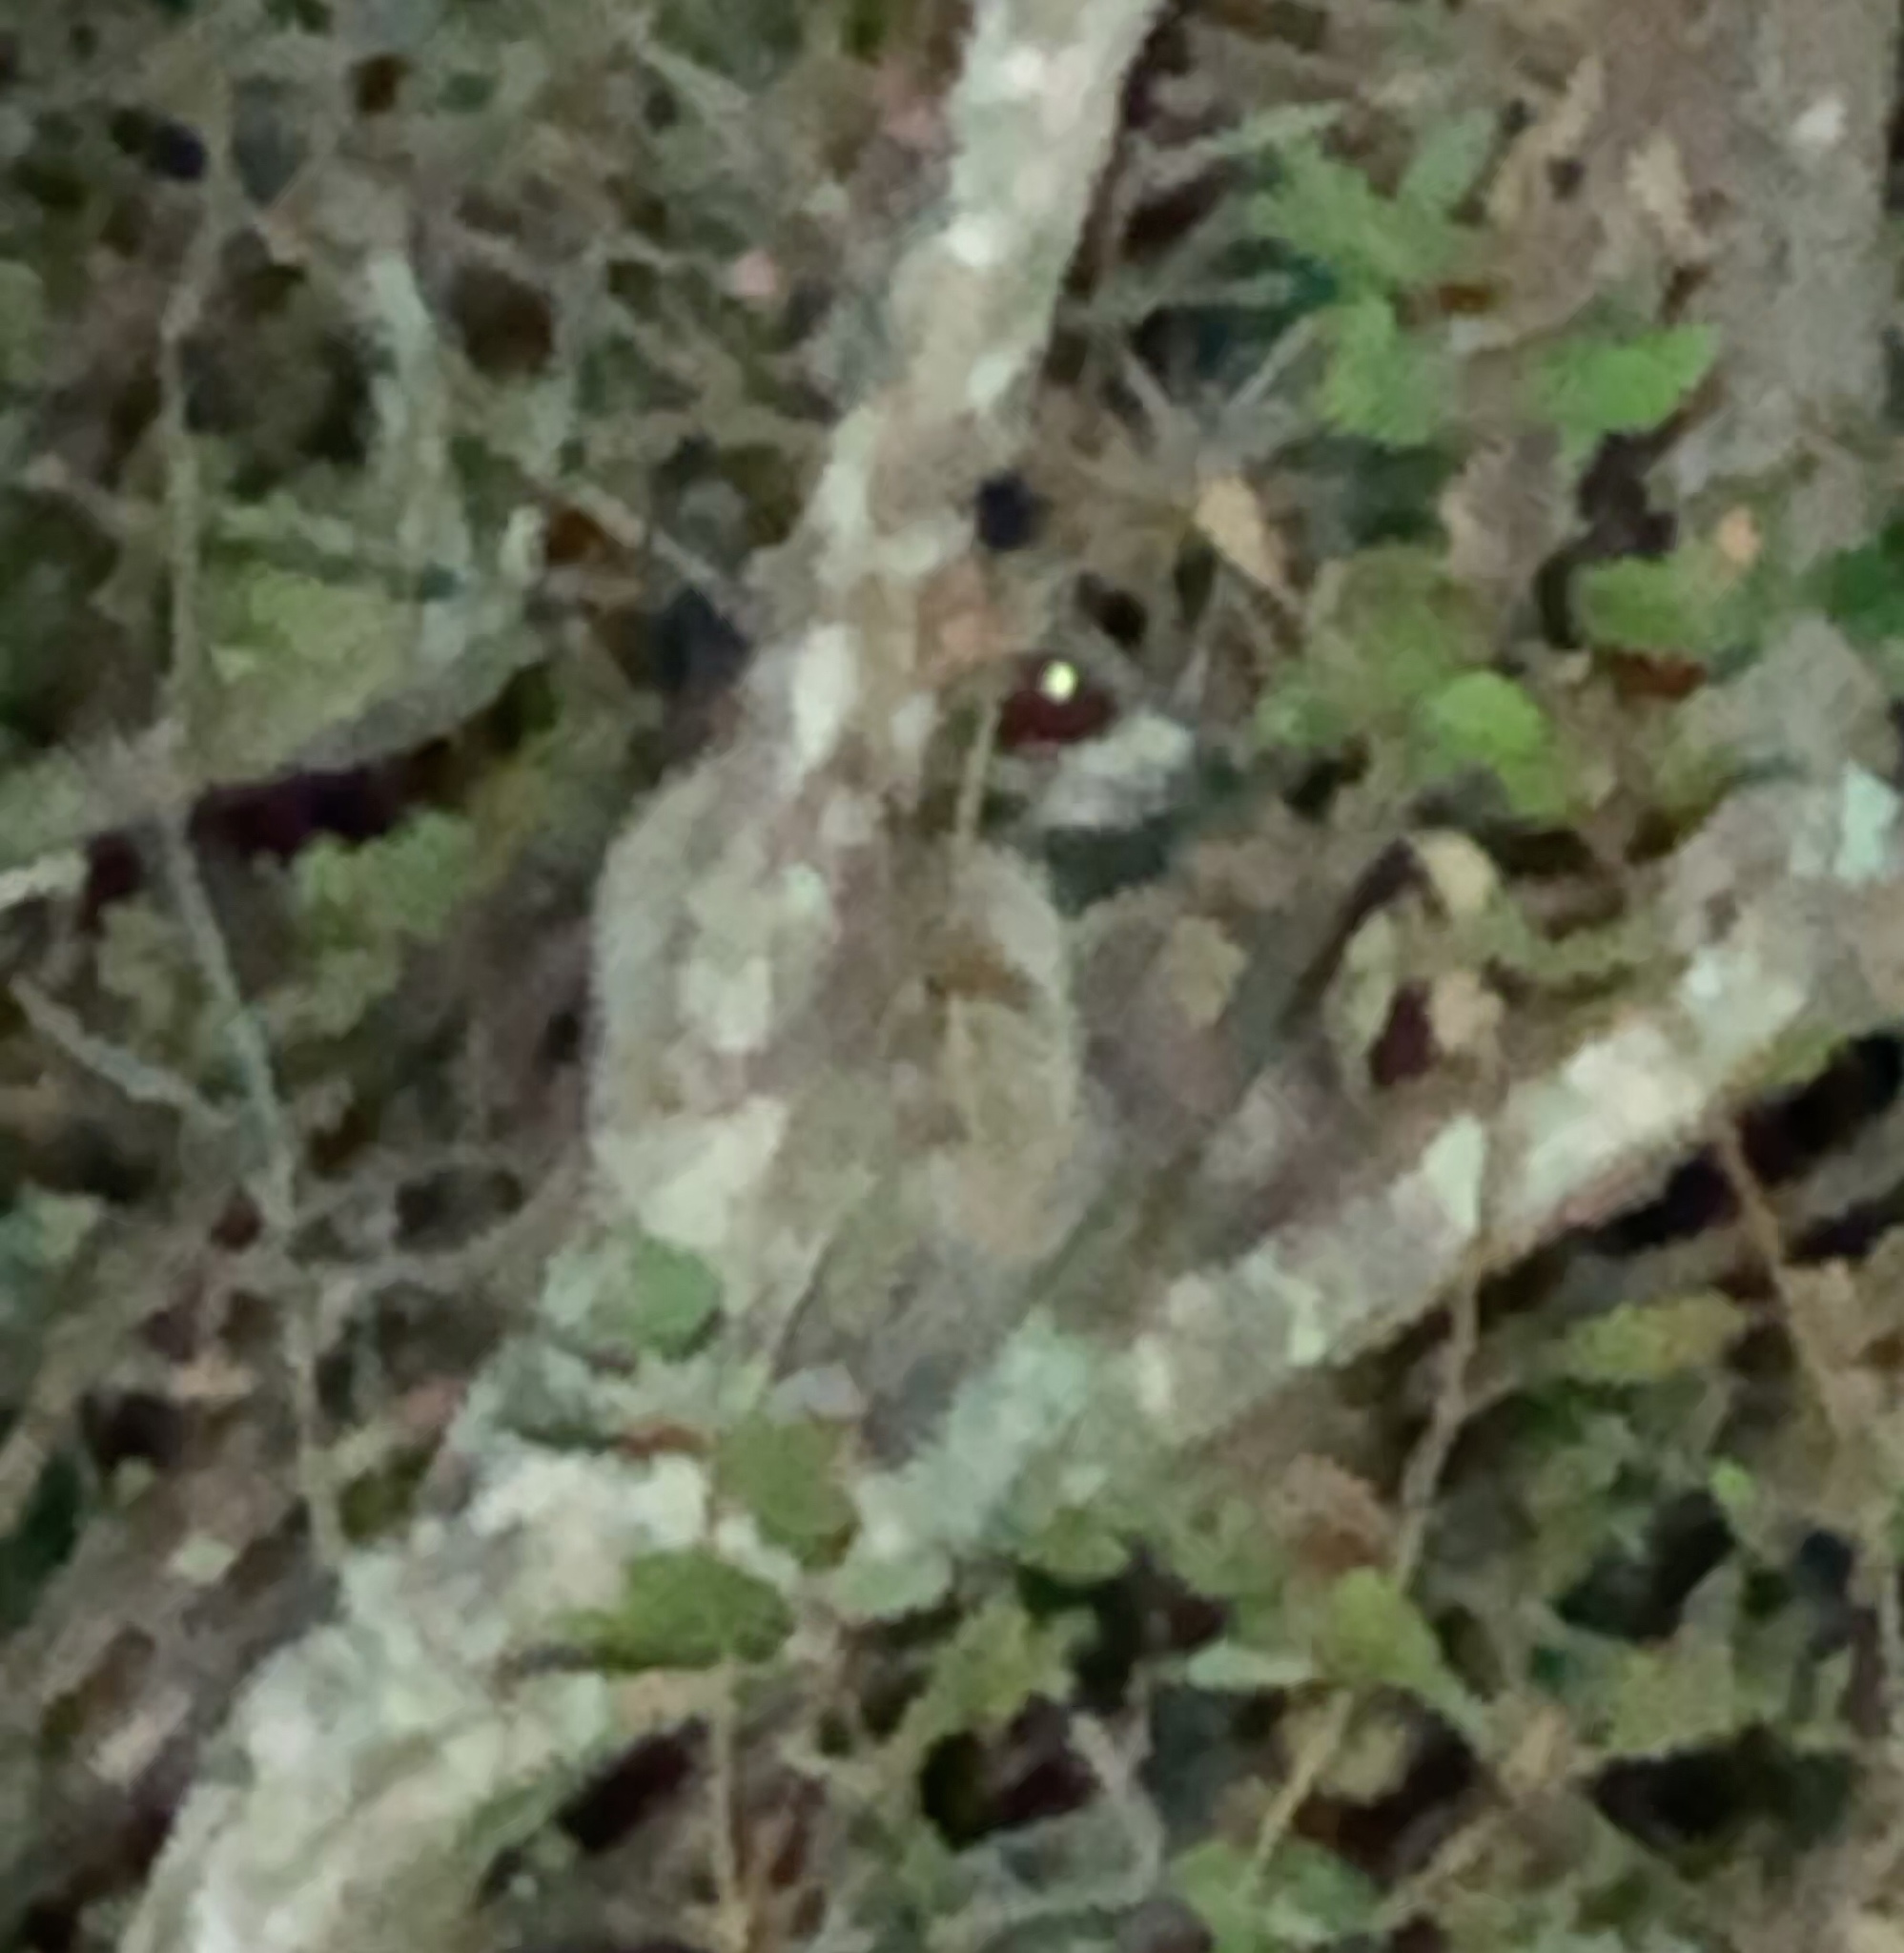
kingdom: Animalia
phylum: Chordata
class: Mammalia
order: Carnivora
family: Procyonidae
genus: Procyon
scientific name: Procyon lotor
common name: Raccoon
